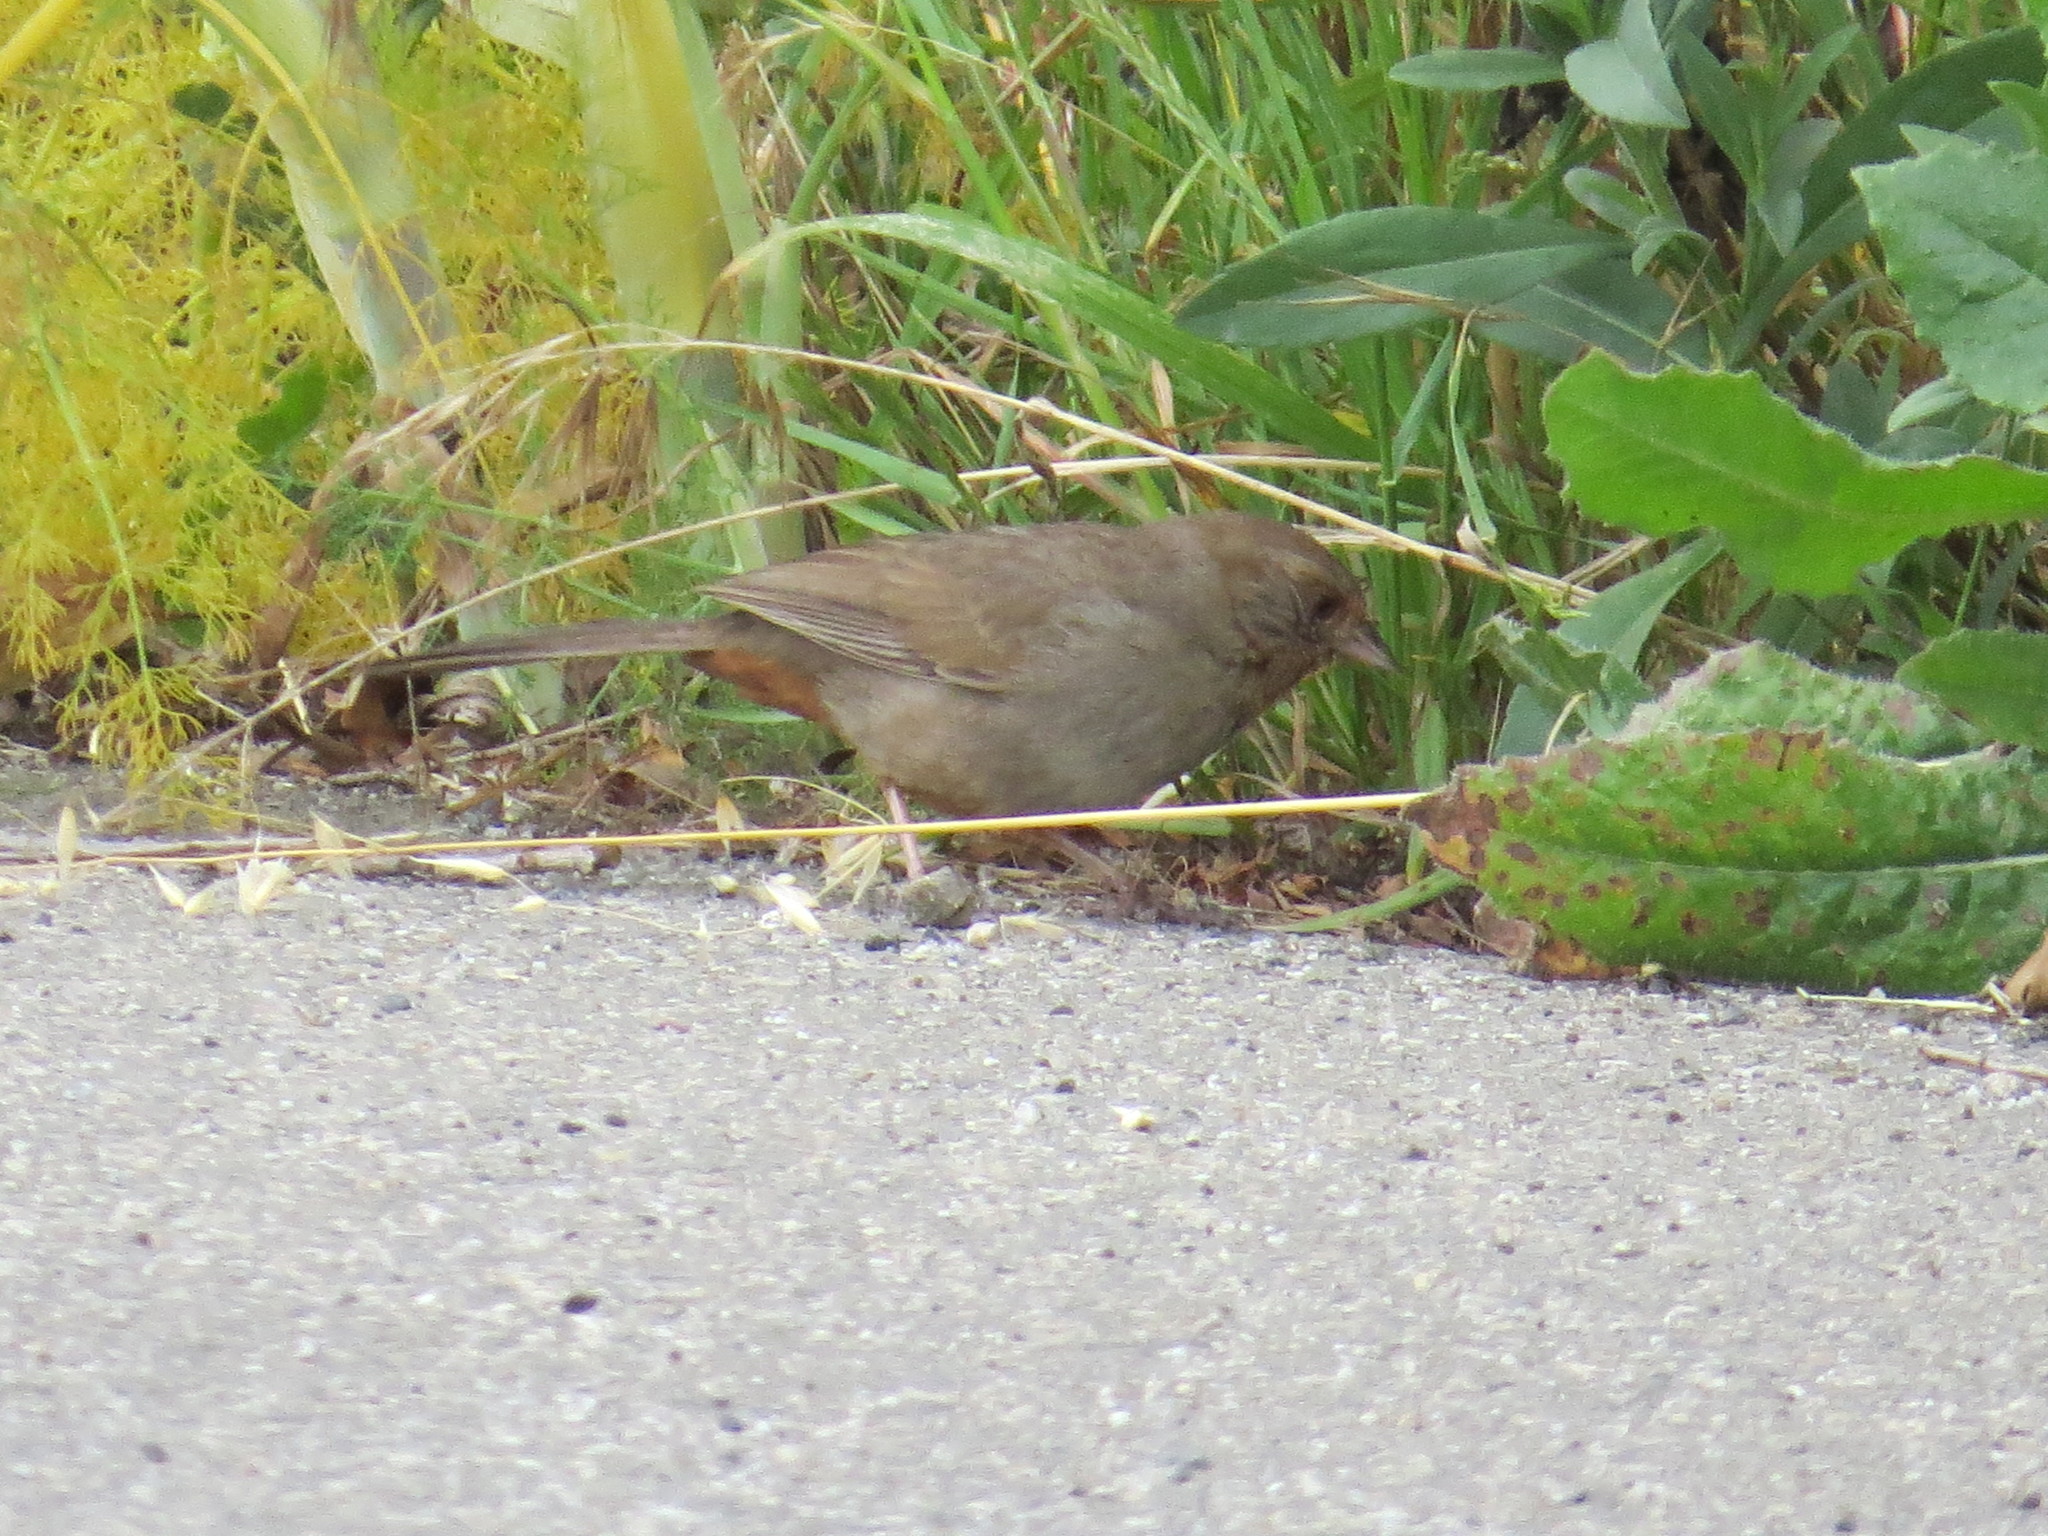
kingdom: Animalia
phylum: Chordata
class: Aves
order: Passeriformes
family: Passerellidae
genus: Melozone
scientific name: Melozone crissalis
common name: California towhee
